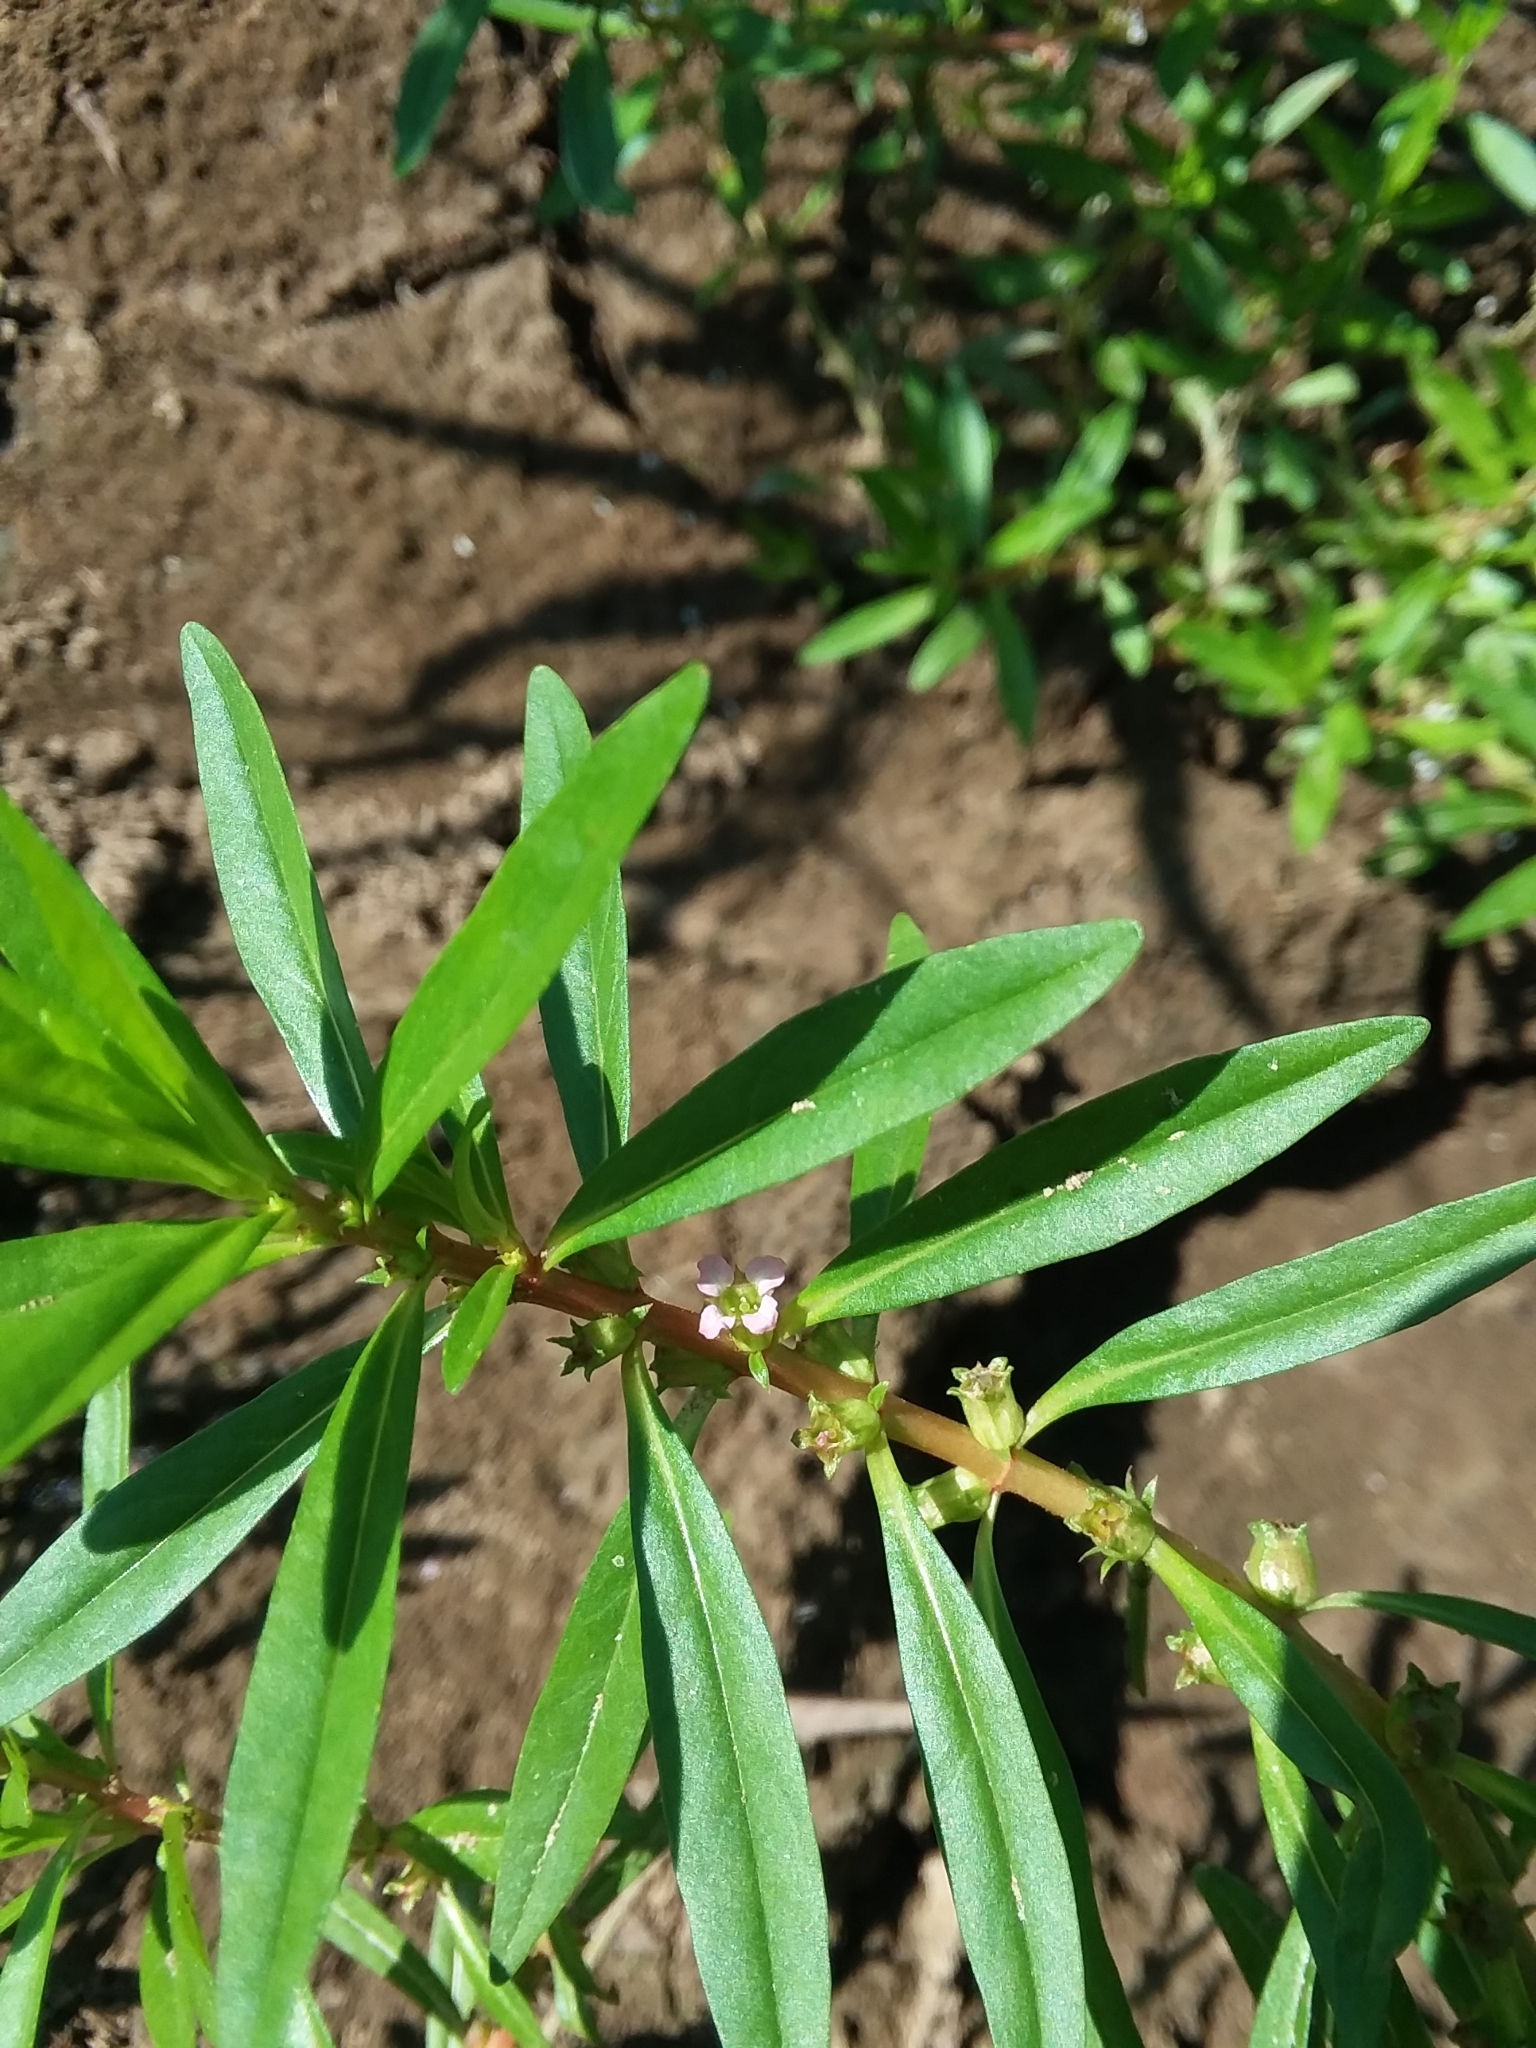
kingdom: Plantae
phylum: Tracheophyta
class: Magnoliopsida
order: Myrtales
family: Lythraceae
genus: Rotala
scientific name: Rotala ramosior
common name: Lowland rotala
